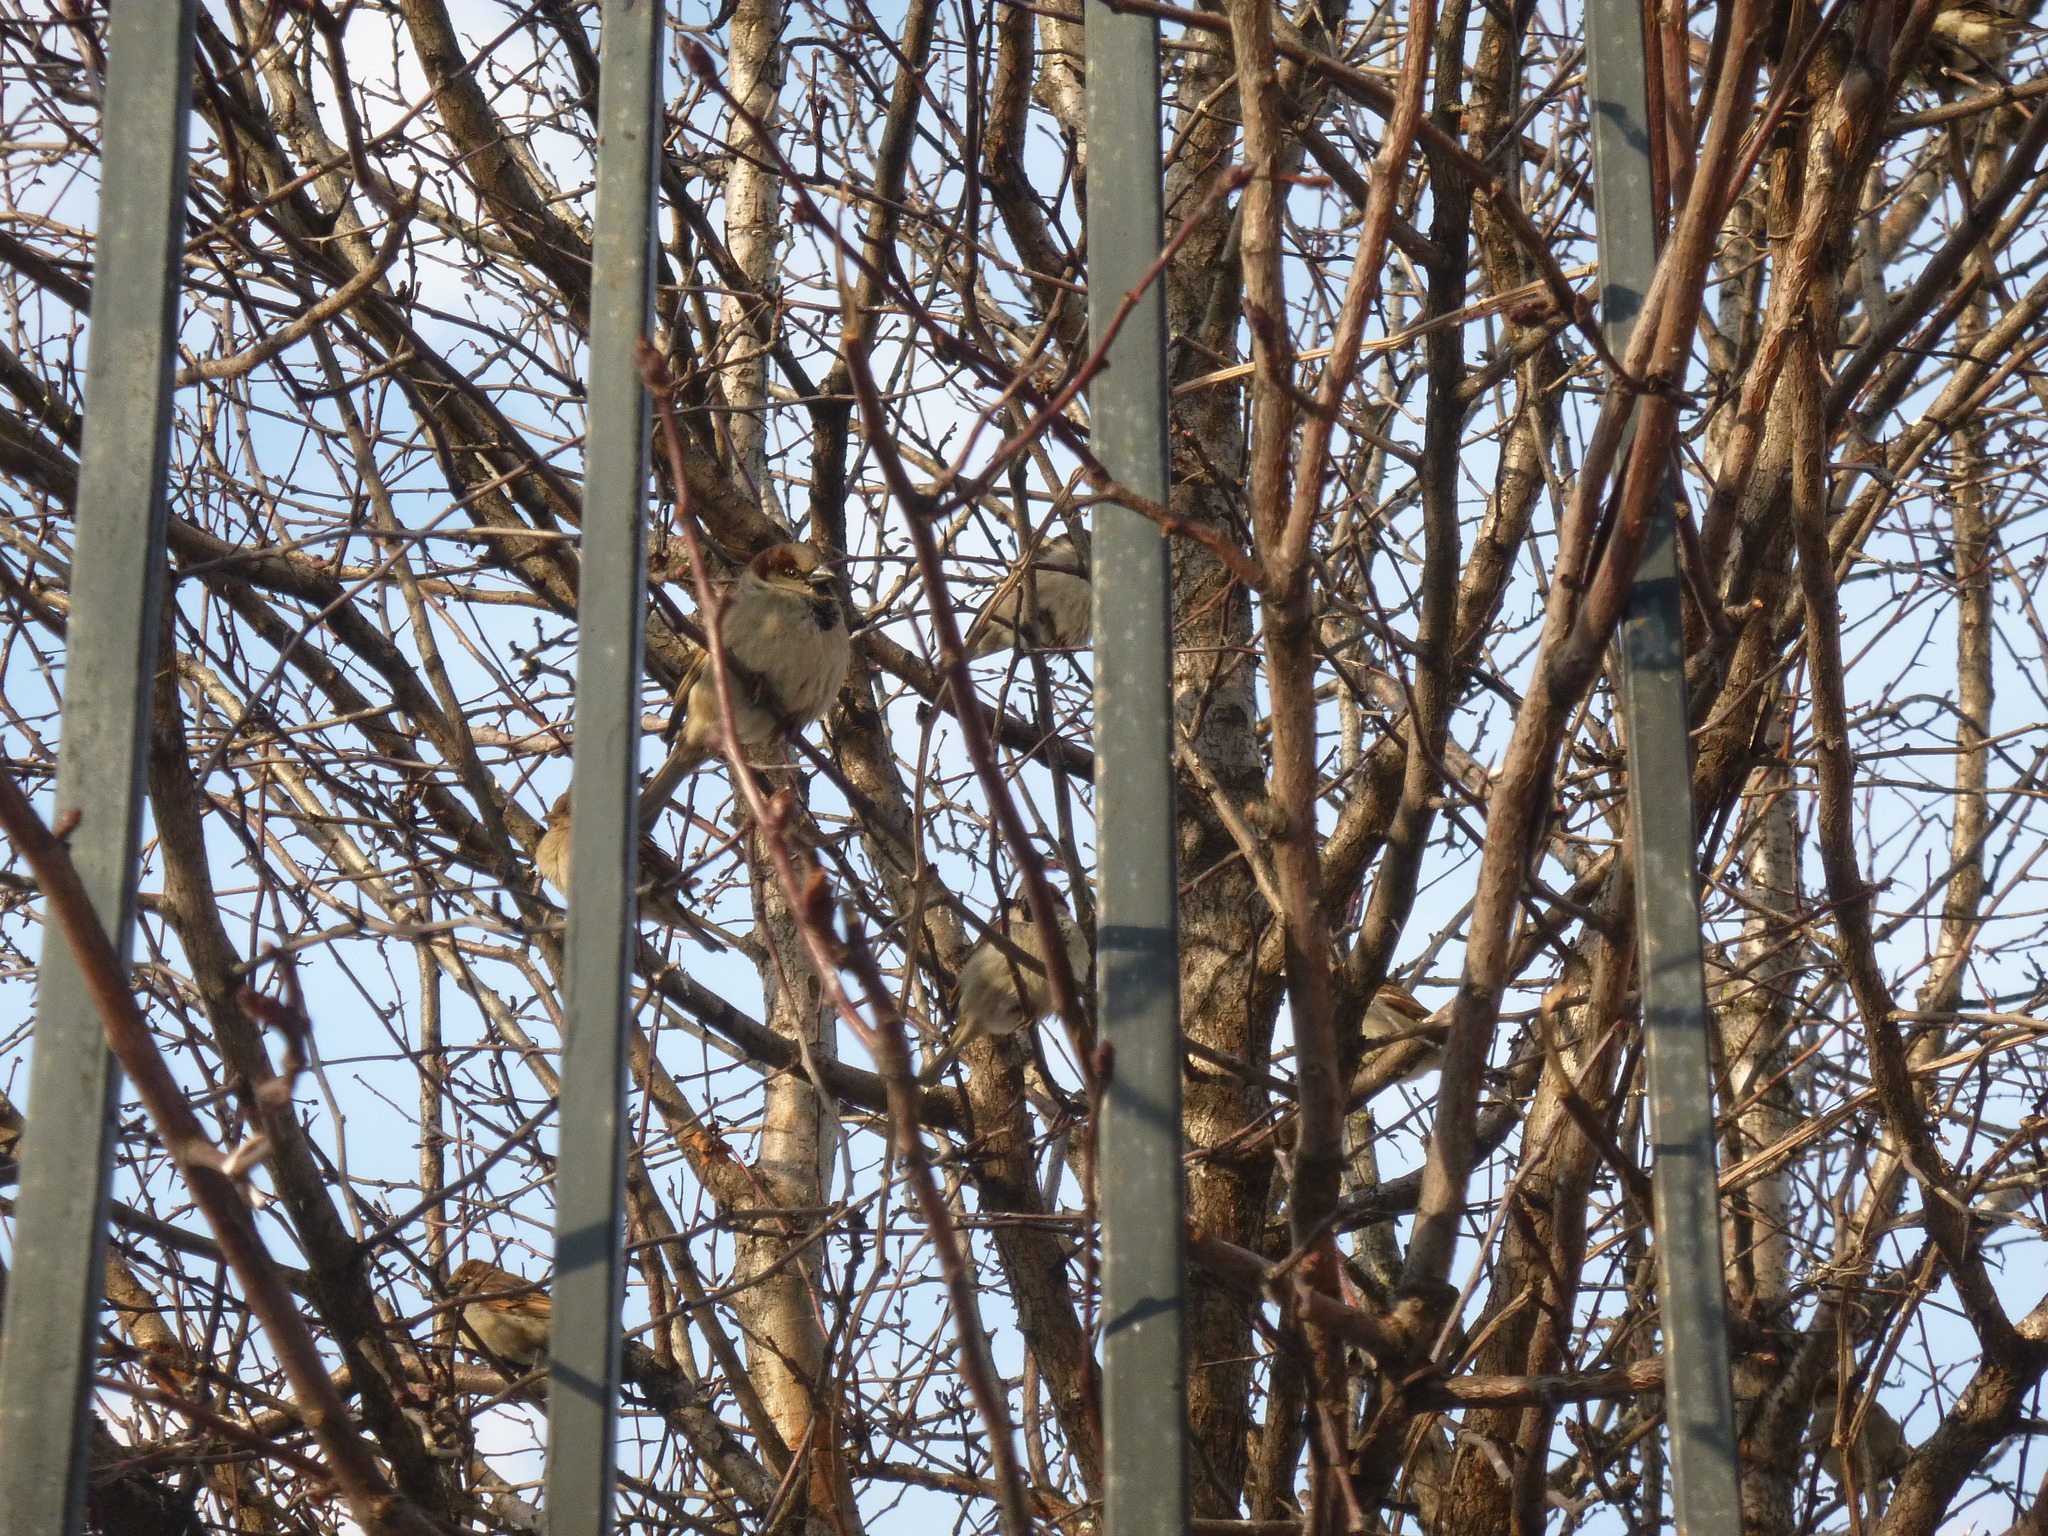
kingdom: Animalia
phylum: Chordata
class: Aves
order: Passeriformes
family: Passeridae
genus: Passer
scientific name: Passer domesticus
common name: House sparrow
